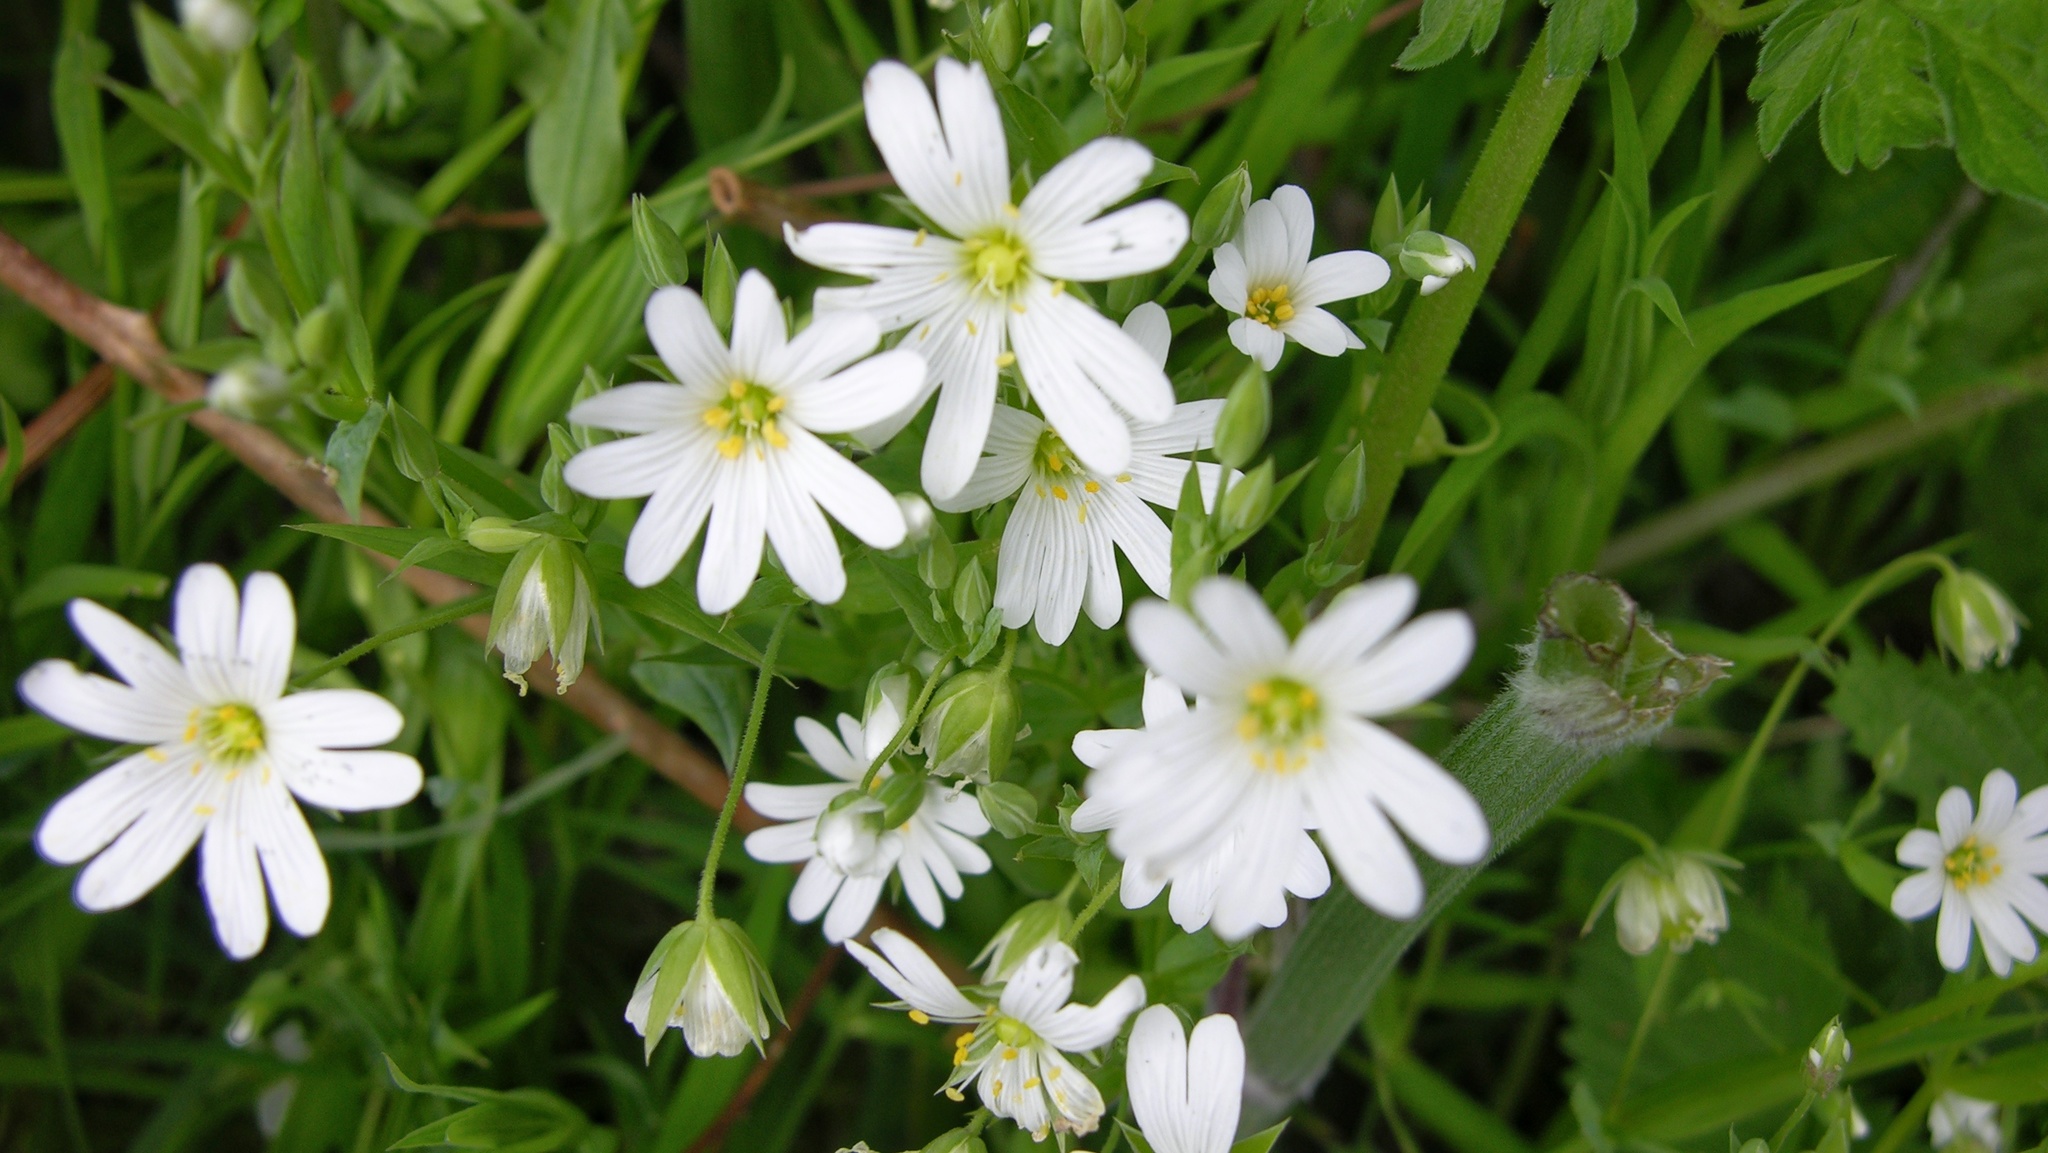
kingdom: Plantae
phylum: Tracheophyta
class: Magnoliopsida
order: Caryophyllales
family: Caryophyllaceae
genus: Rabelera
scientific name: Rabelera holostea
